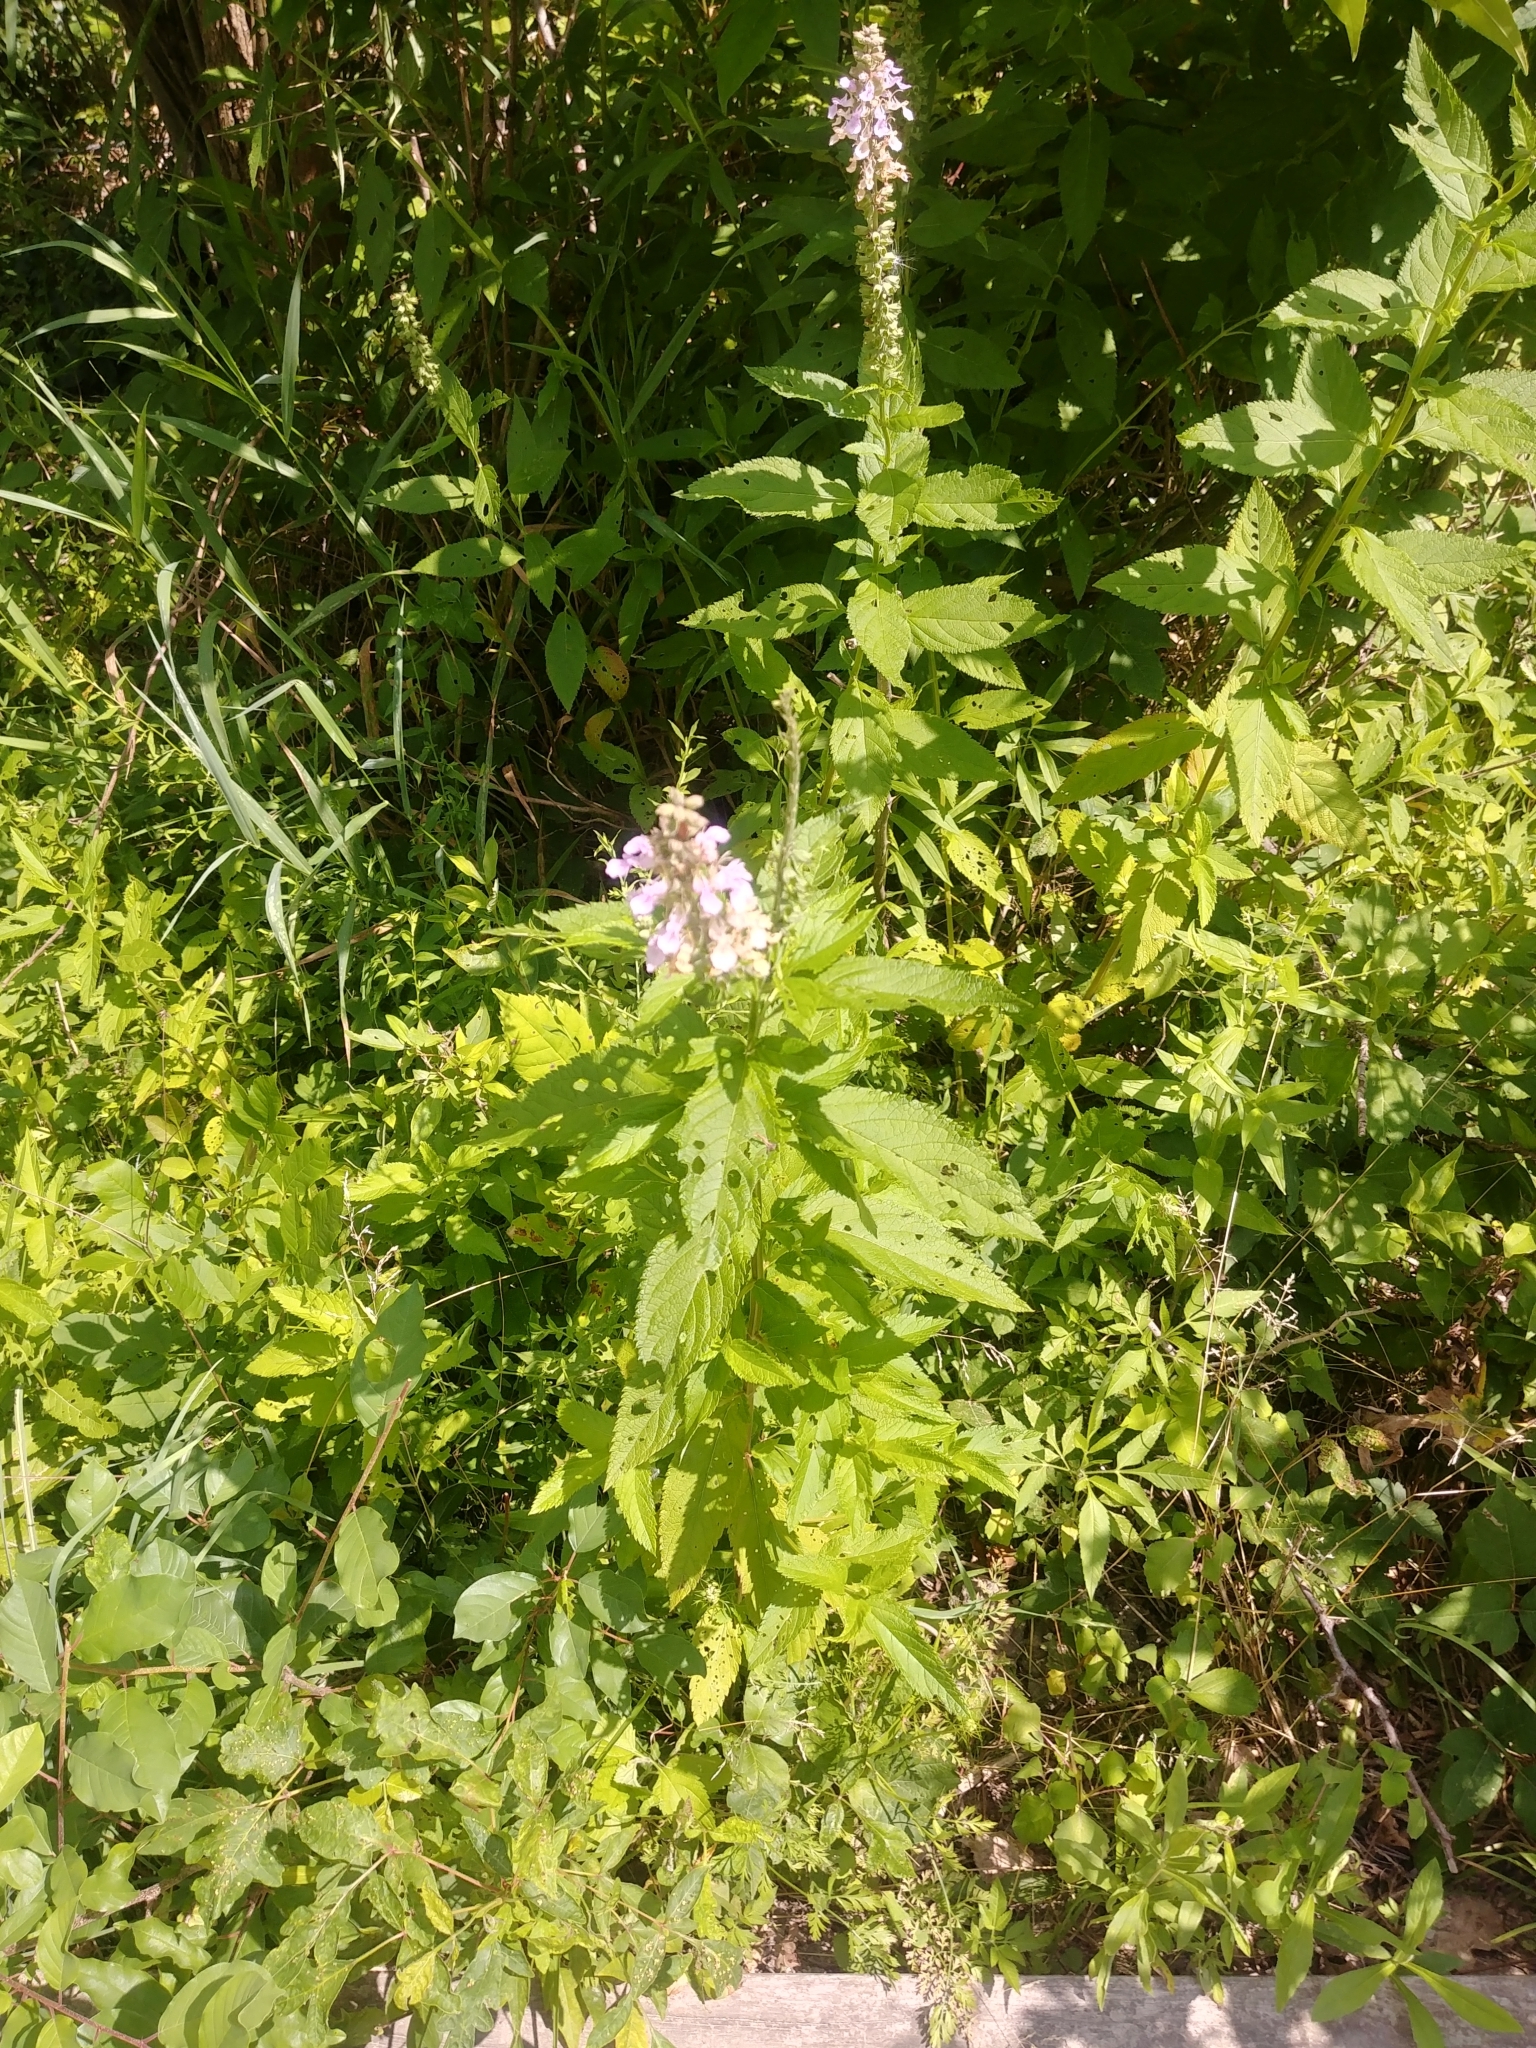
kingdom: Plantae
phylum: Tracheophyta
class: Magnoliopsida
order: Lamiales
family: Lamiaceae
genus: Teucrium
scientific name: Teucrium canadense
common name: American germander
